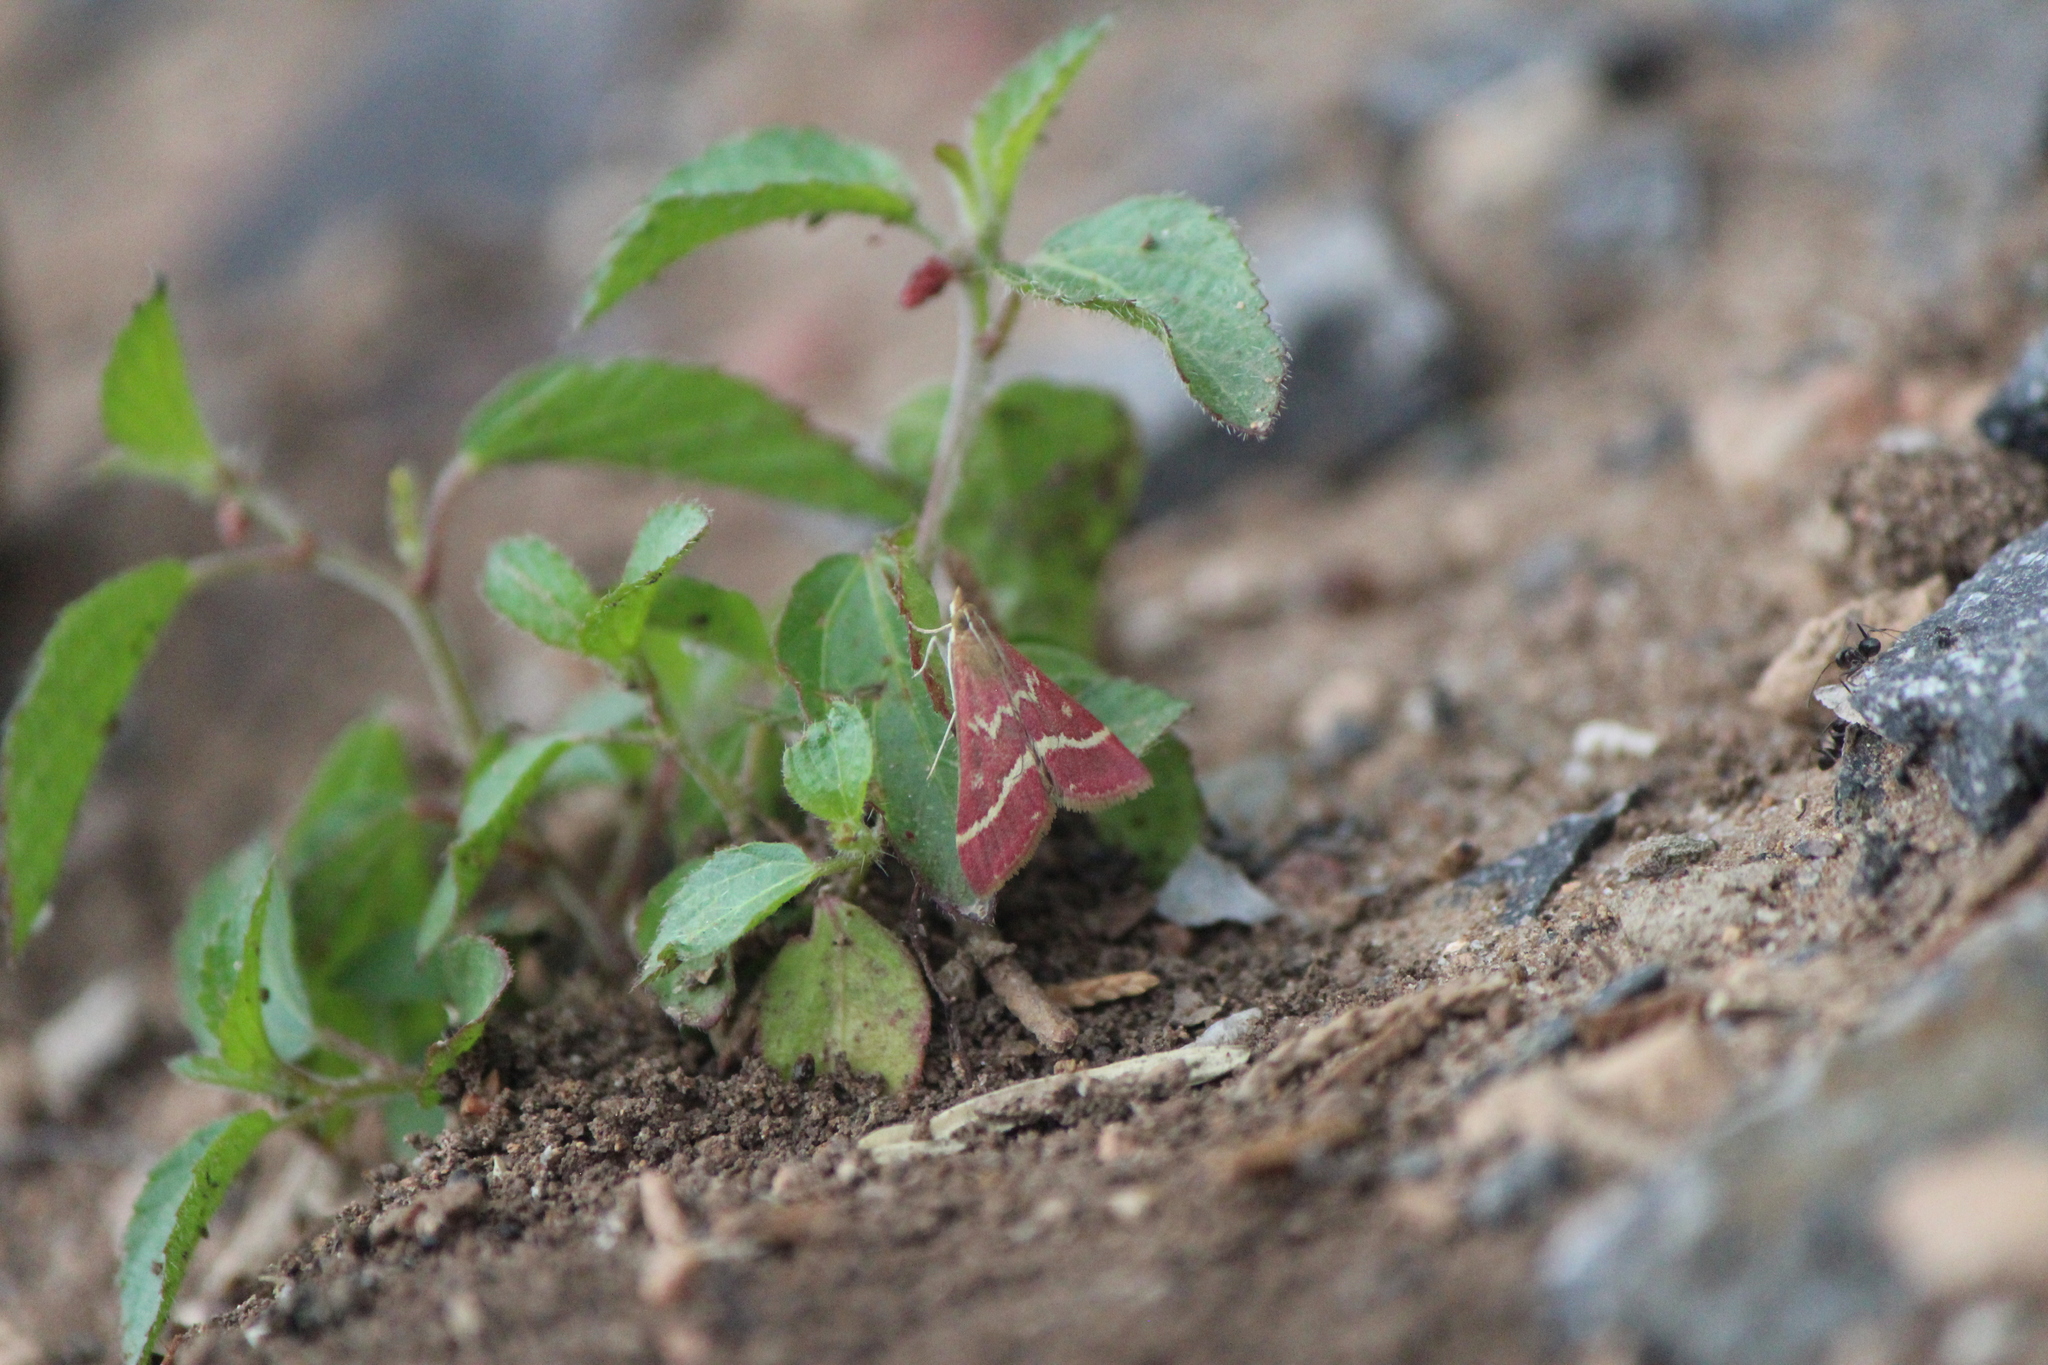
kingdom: Animalia
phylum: Arthropoda
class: Insecta
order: Lepidoptera
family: Crambidae
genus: Pyrausta
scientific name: Pyrausta volupialis
